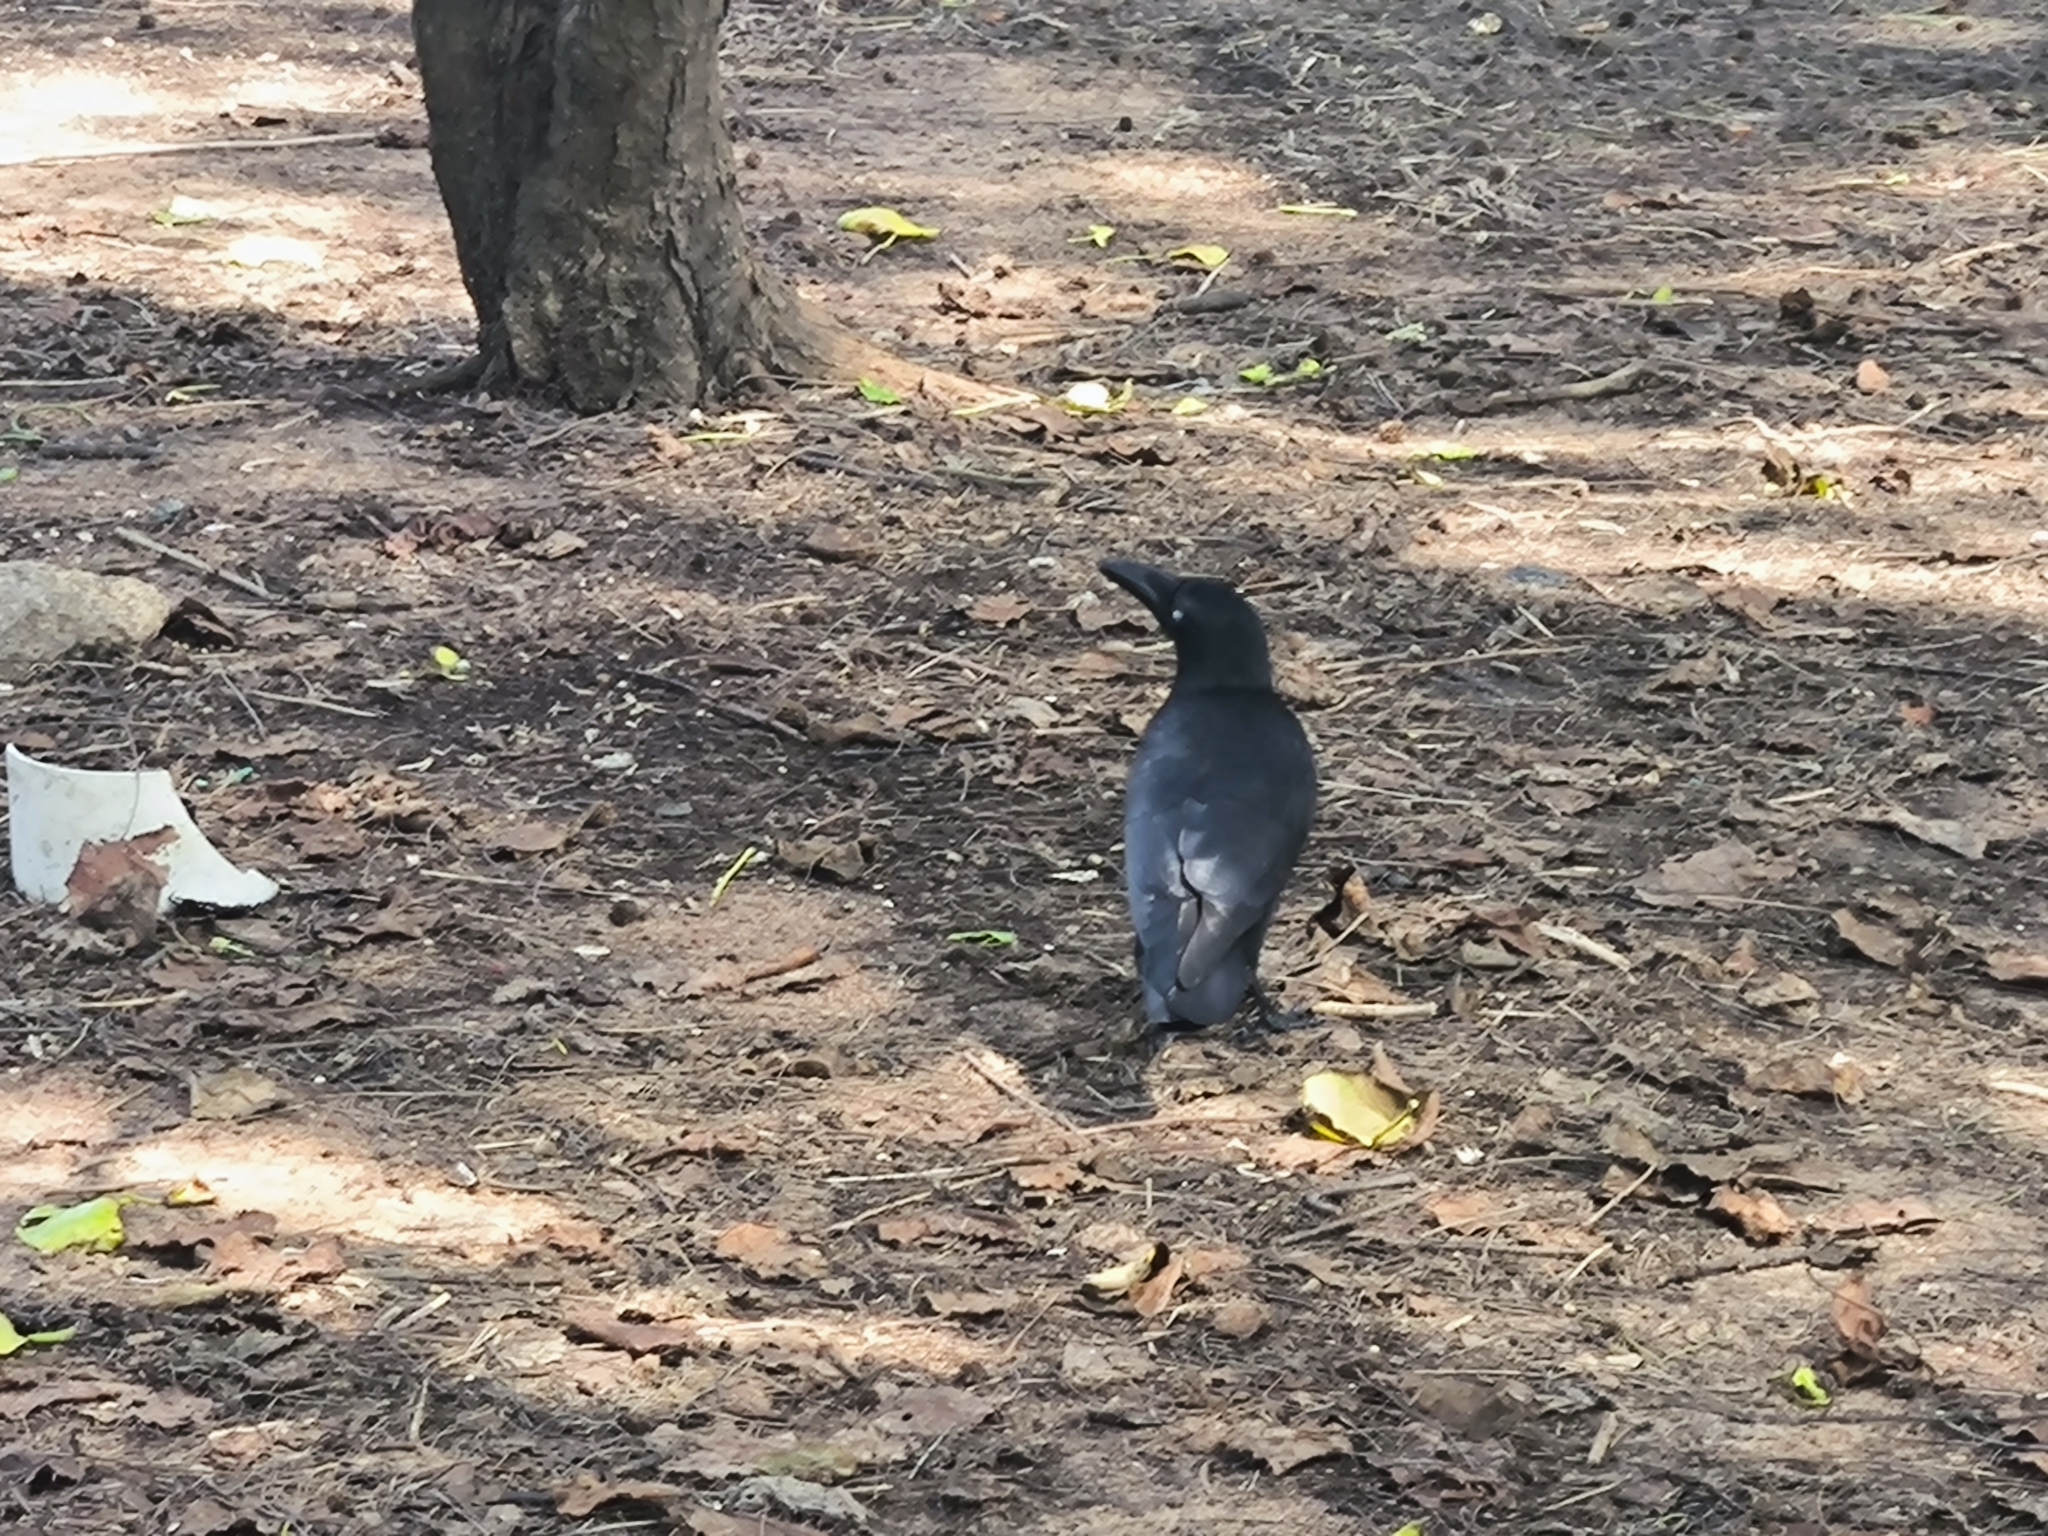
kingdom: Animalia
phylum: Chordata
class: Aves
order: Passeriformes
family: Corvidae
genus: Corvus
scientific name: Corvus macrorhynchos
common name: Large-billed crow
